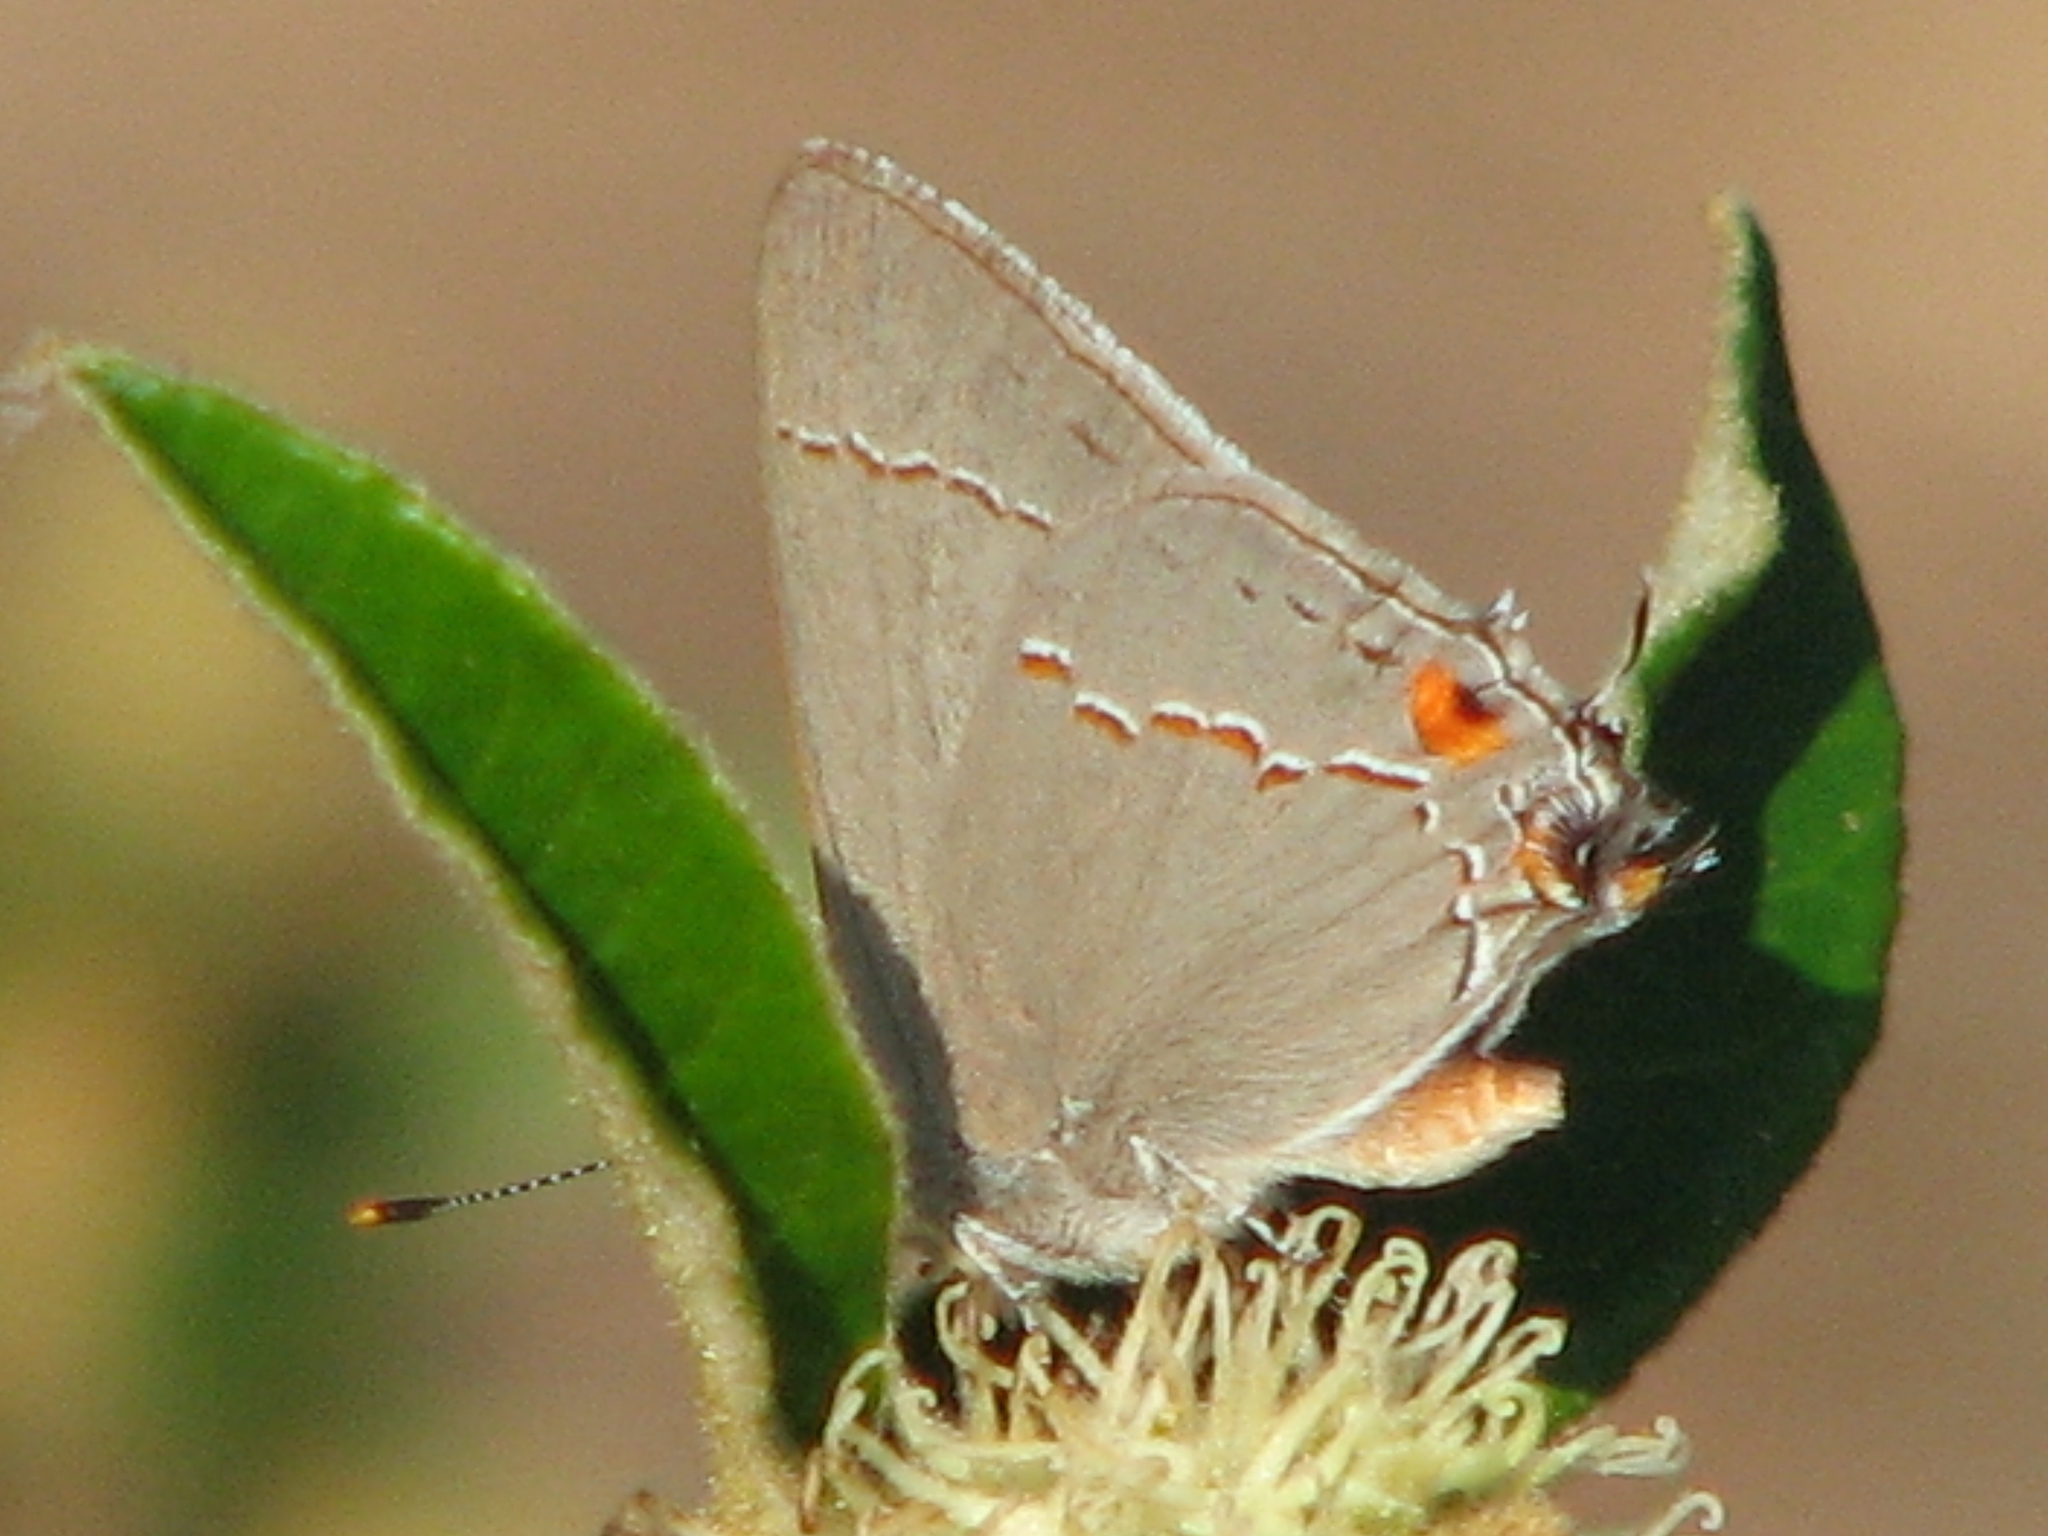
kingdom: Animalia
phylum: Arthropoda
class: Insecta
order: Lepidoptera
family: Lycaenidae
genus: Strymon
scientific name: Strymon melinus
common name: Gray hairstreak
